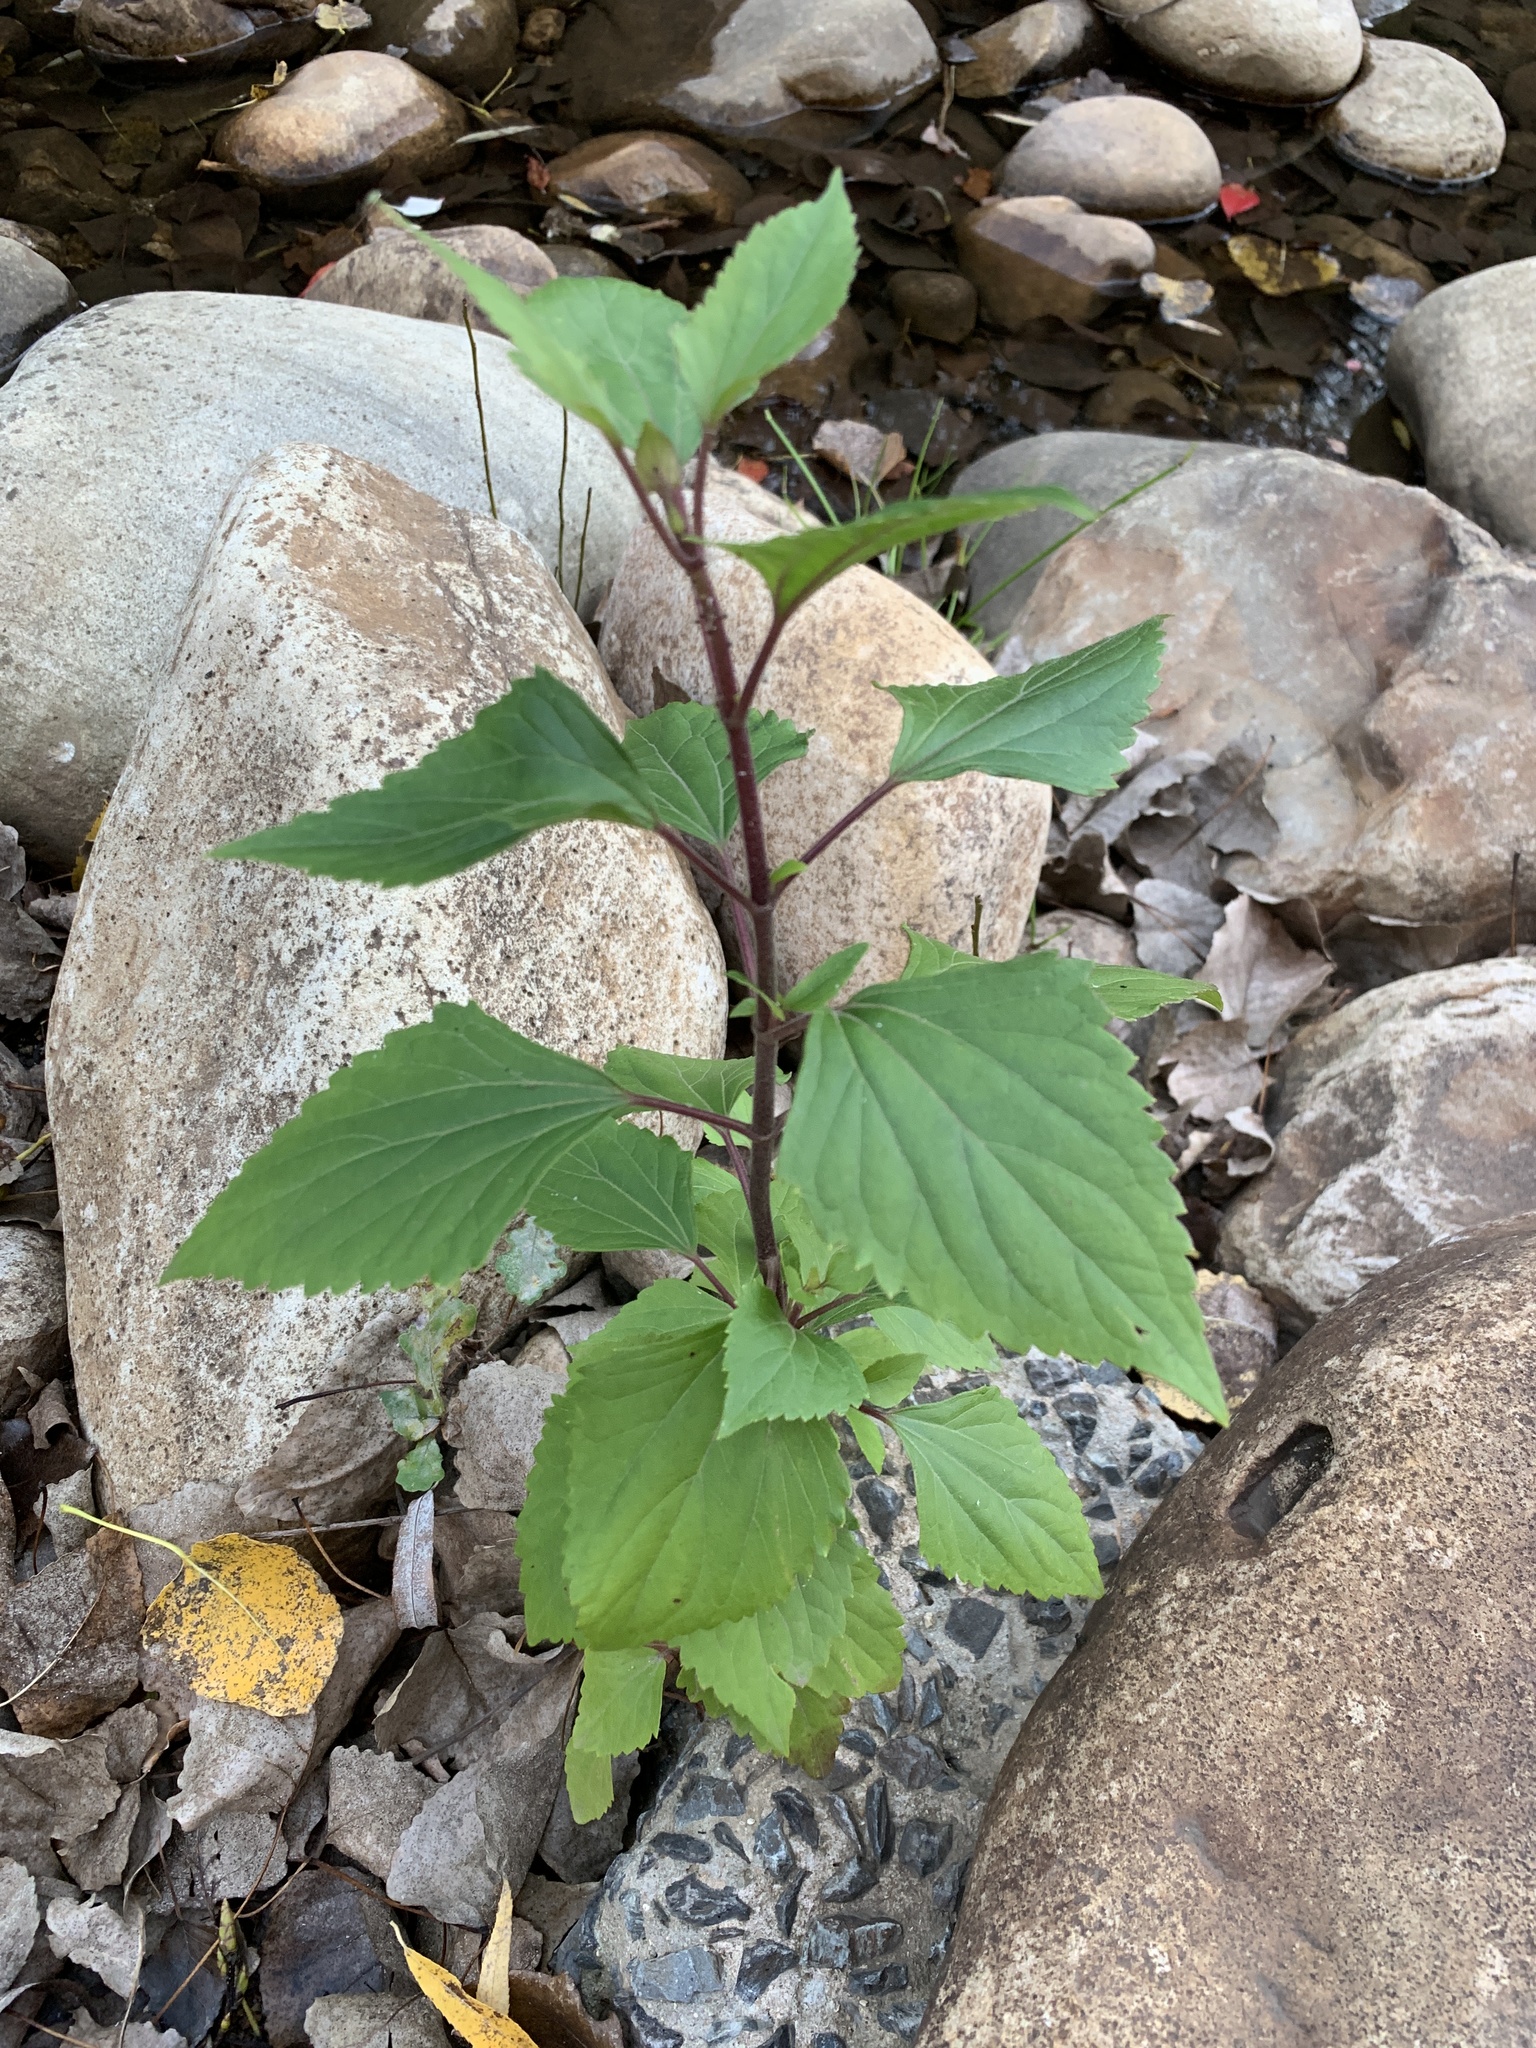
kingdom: Plantae
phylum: Tracheophyta
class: Magnoliopsida
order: Asterales
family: Asteraceae
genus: Ageratina
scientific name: Ageratina adenophora
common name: Sticky snakeroot
